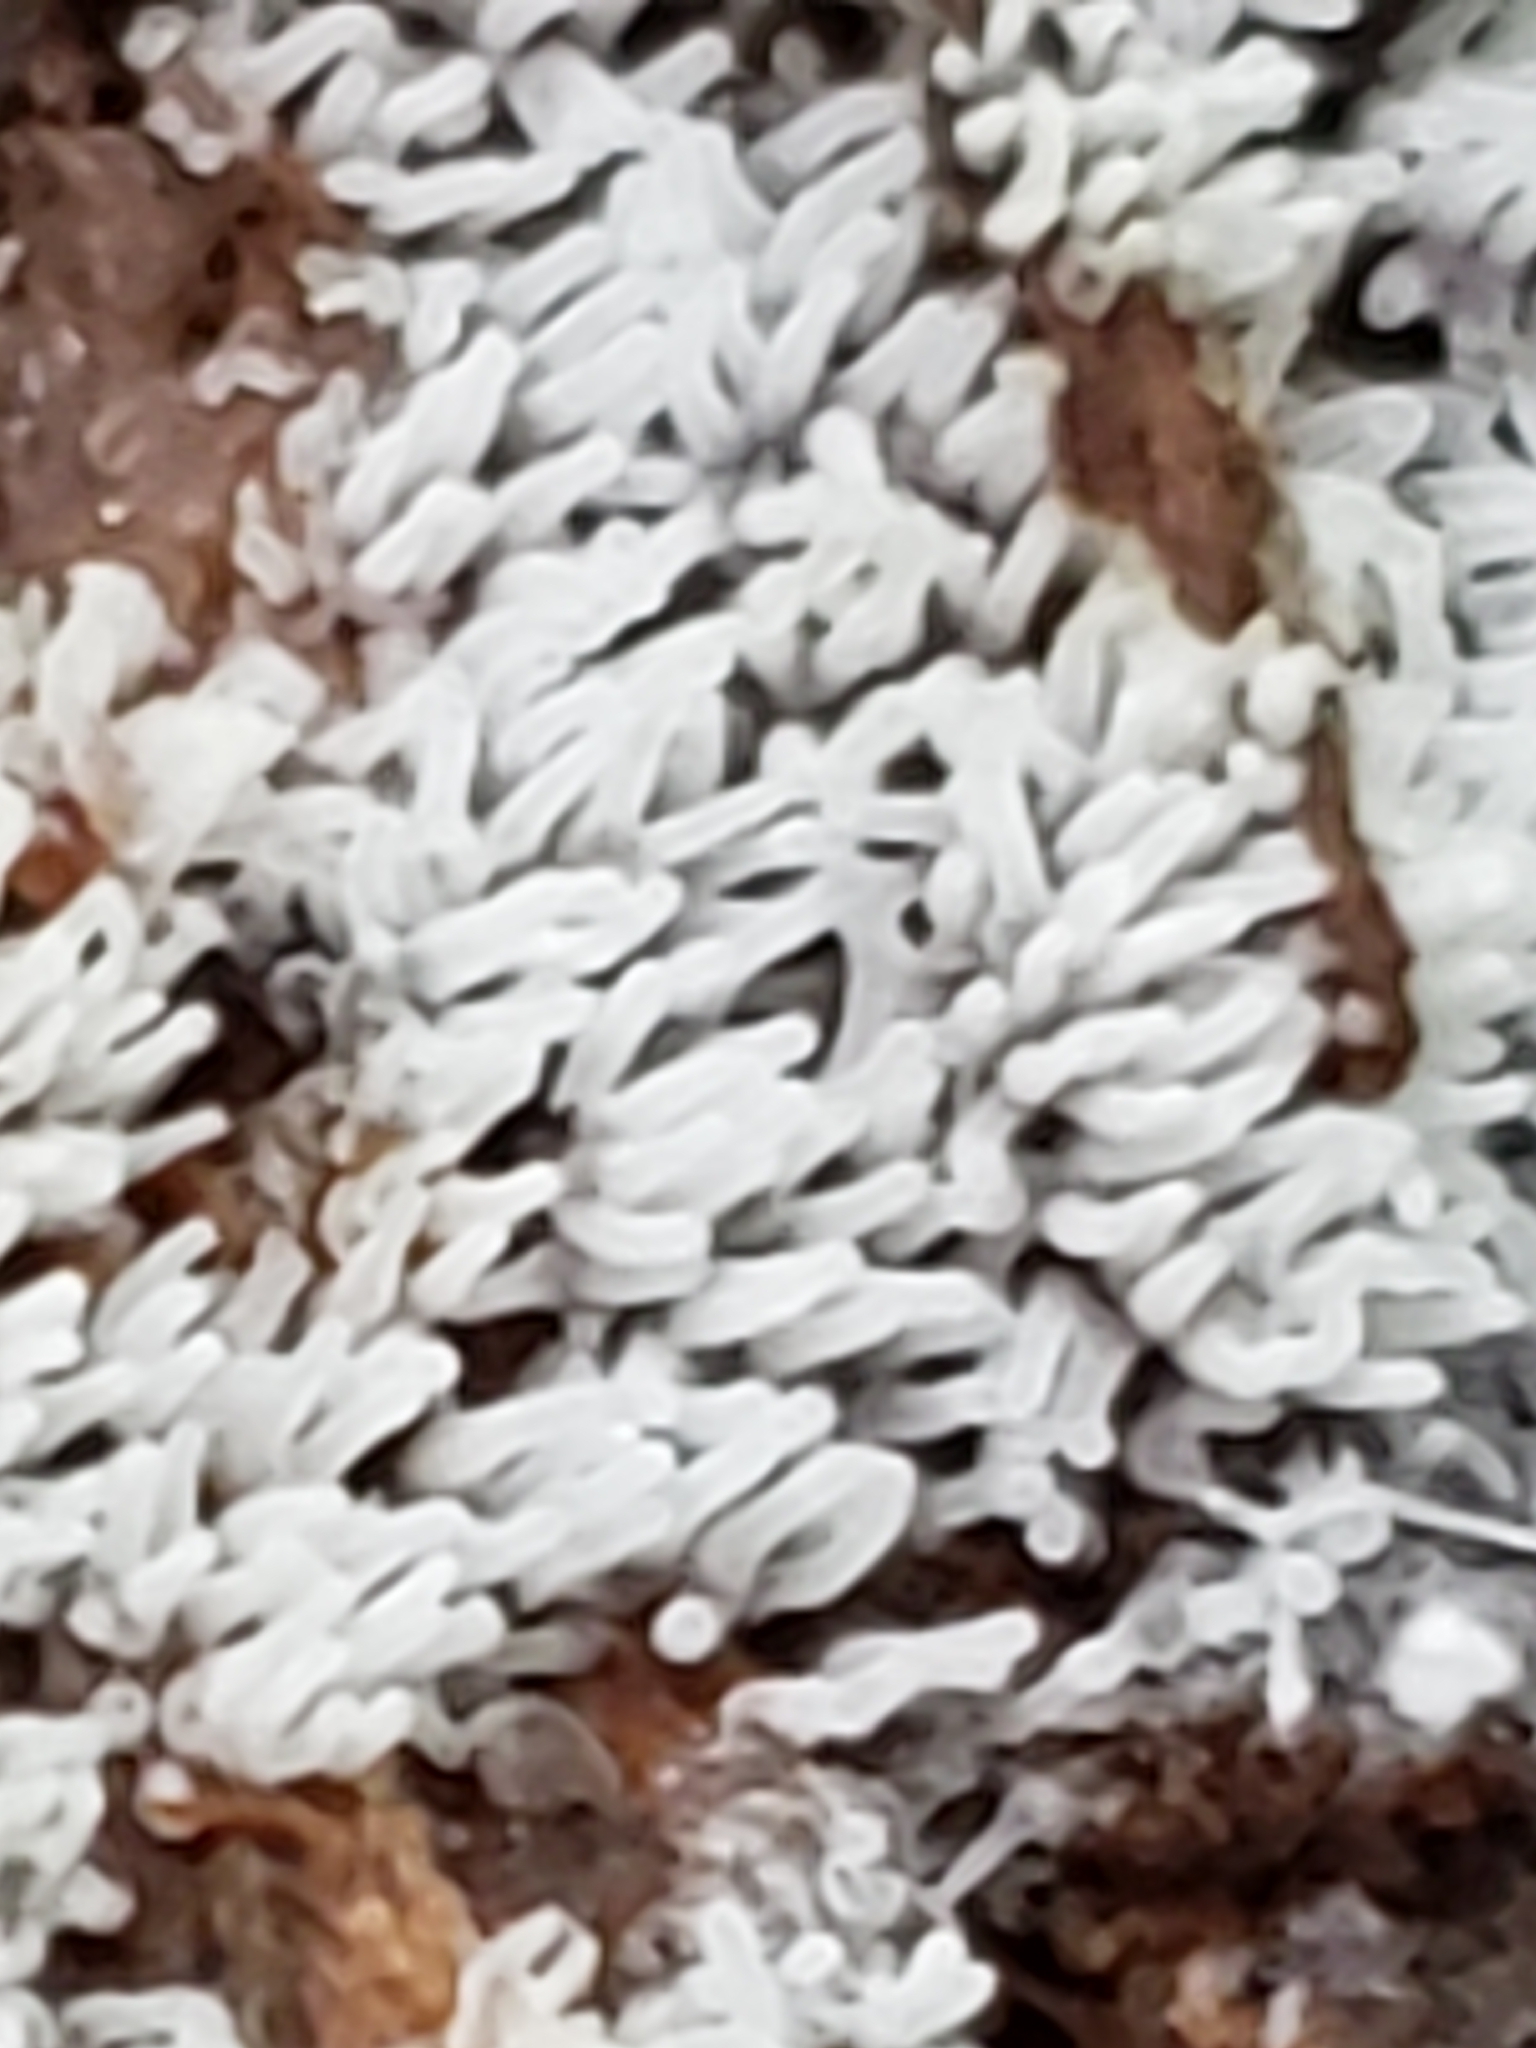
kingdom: Protozoa
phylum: Mycetozoa
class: Protosteliomycetes
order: Ceratiomyxales
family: Ceratiomyxaceae
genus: Ceratiomyxa
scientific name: Ceratiomyxa fruticulosa
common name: Honeycomb coral slime mold
